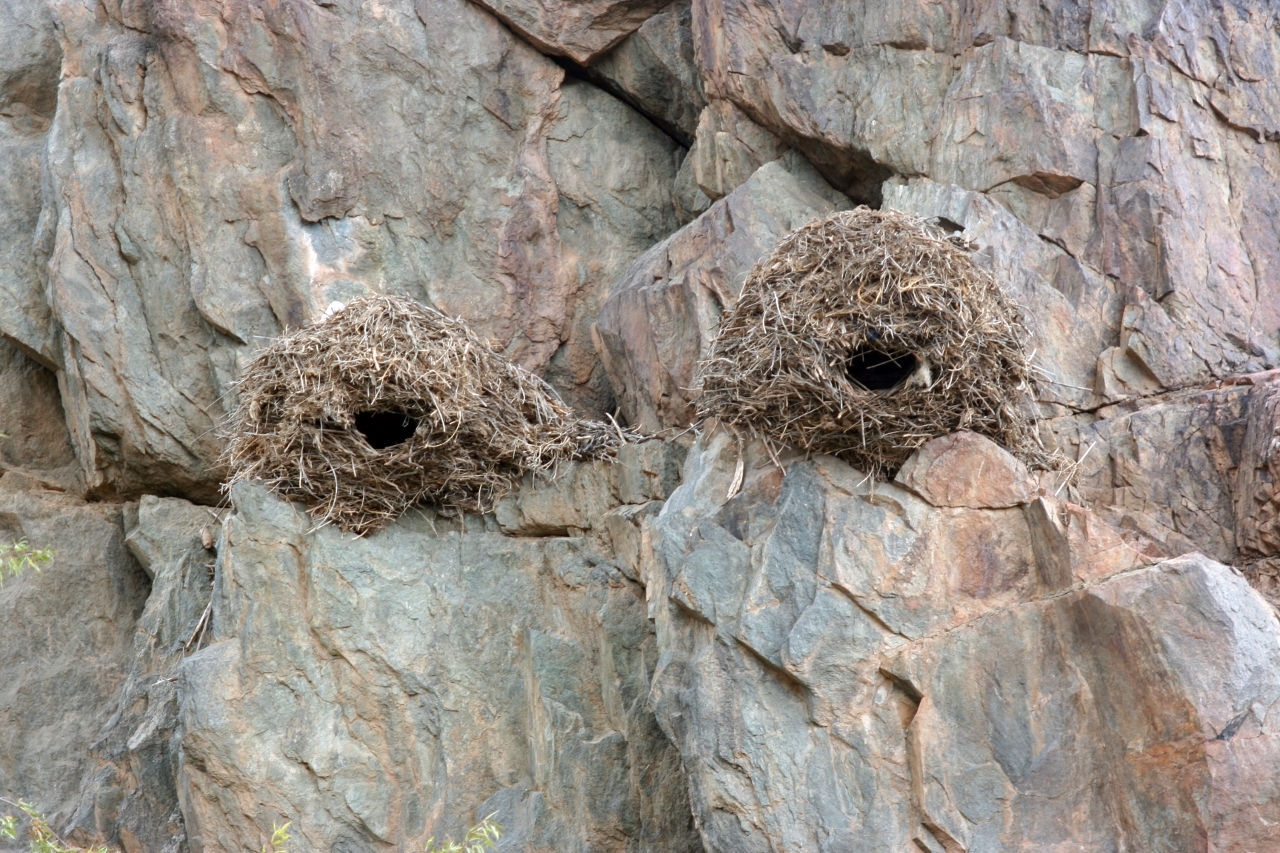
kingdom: Animalia
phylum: Chordata
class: Aves
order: Pelecaniformes
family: Scopidae
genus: Scopus
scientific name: Scopus umbretta
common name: Hamerkop
